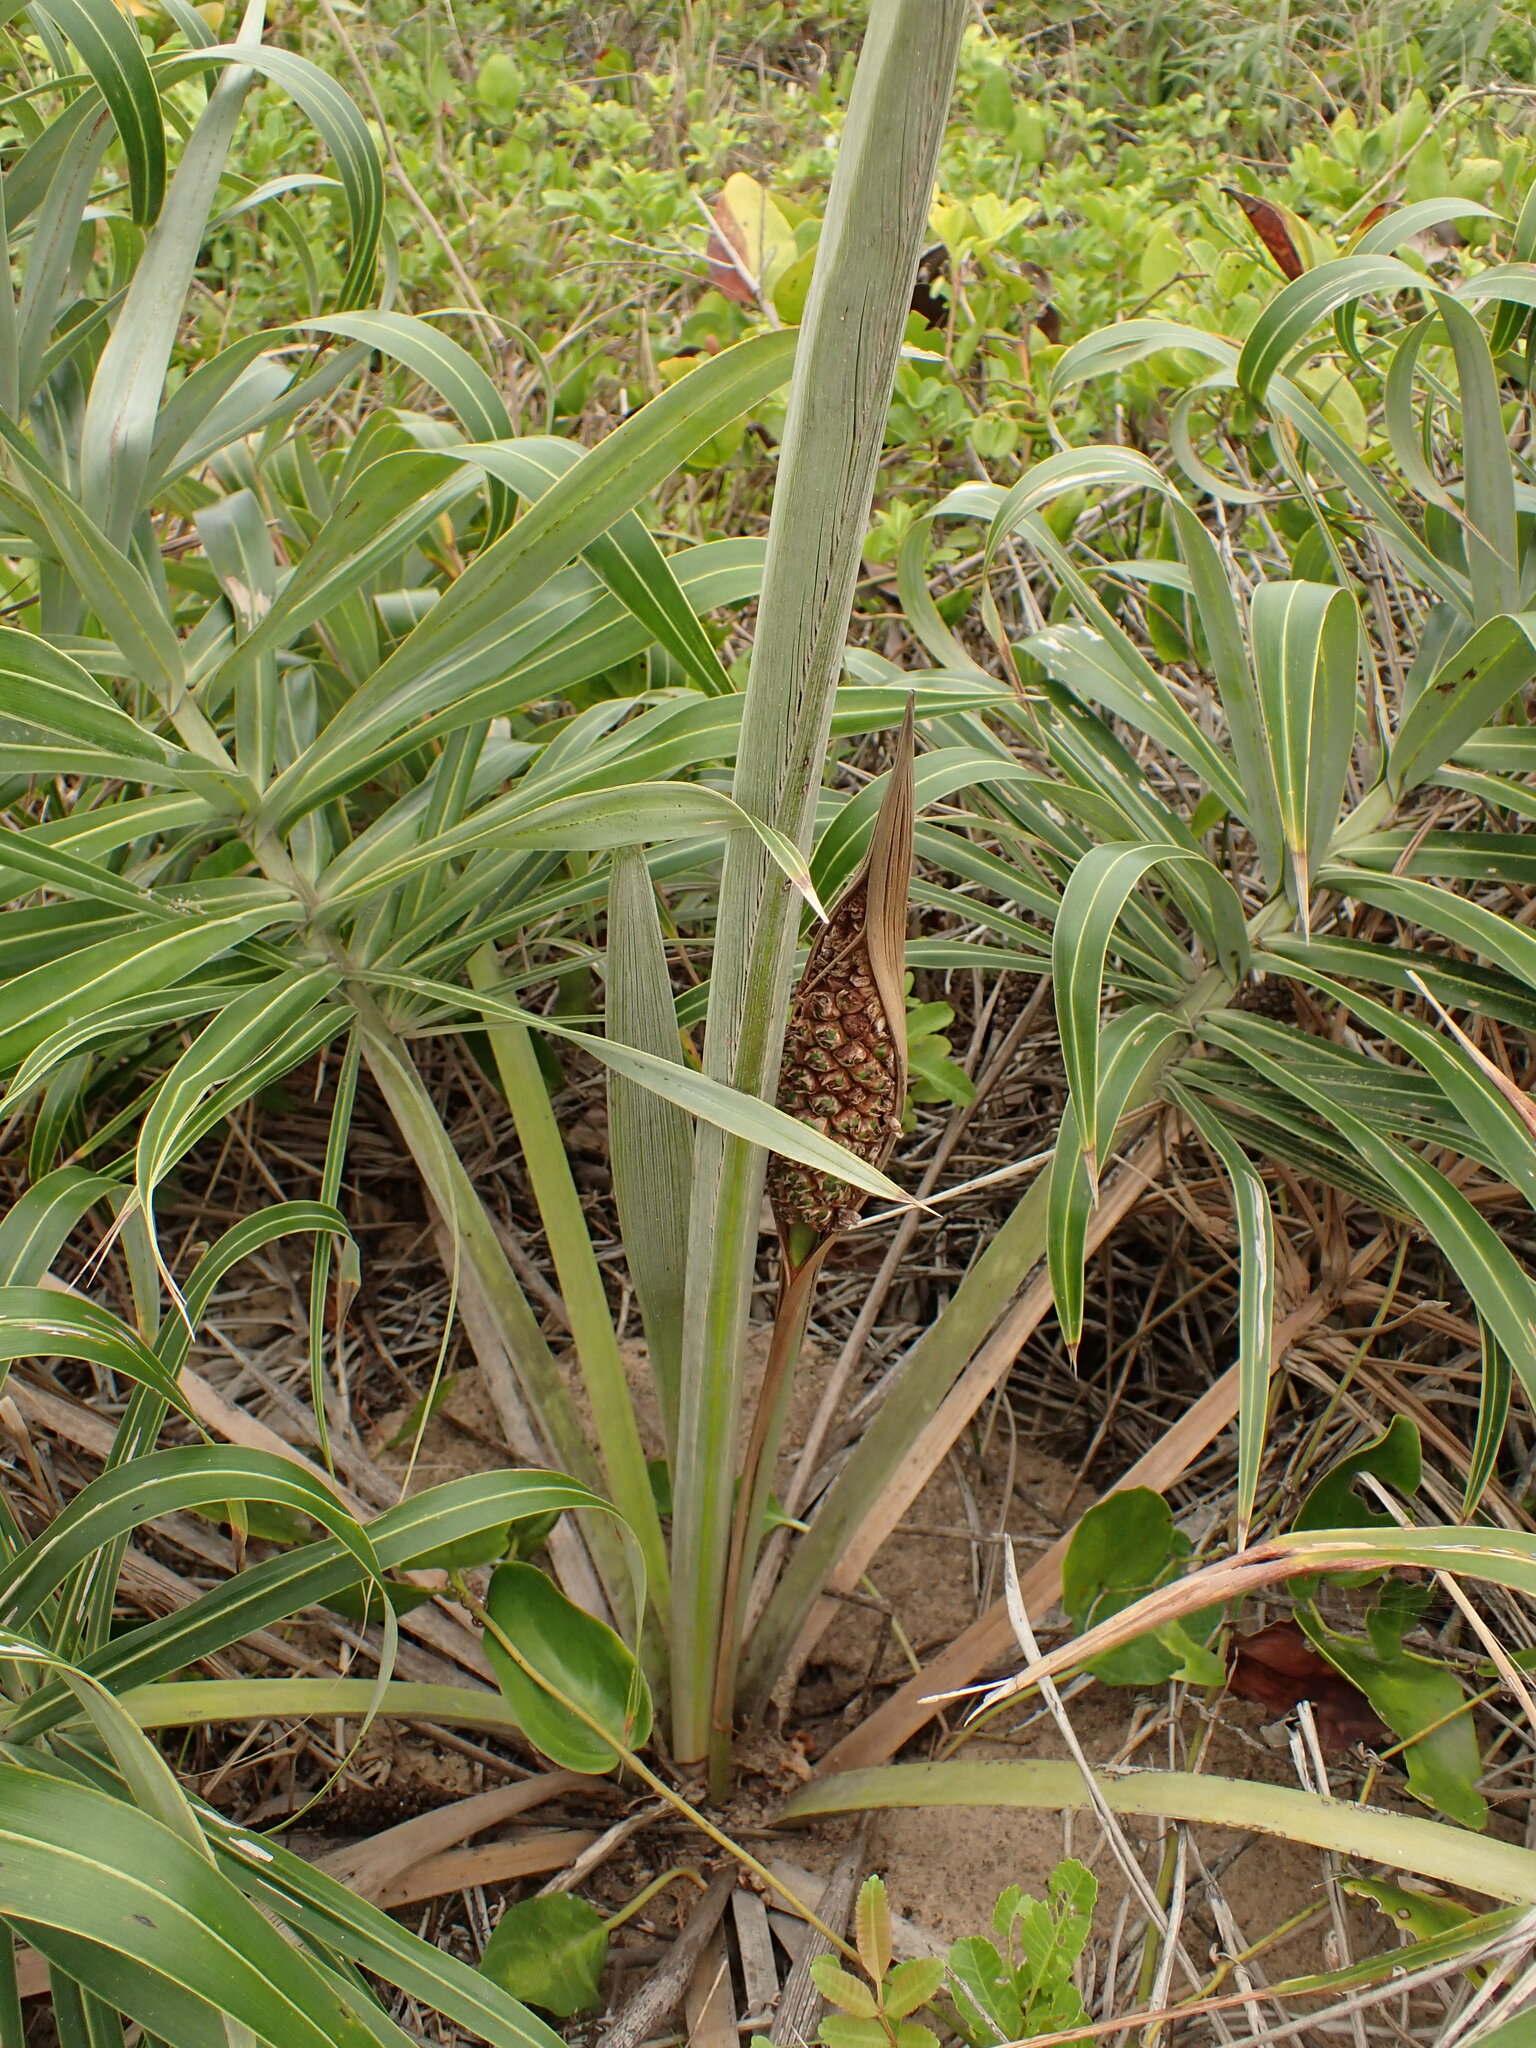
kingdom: Plantae
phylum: Tracheophyta
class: Liliopsida
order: Arecales
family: Arecaceae
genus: Allagoptera
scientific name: Allagoptera arenaria
